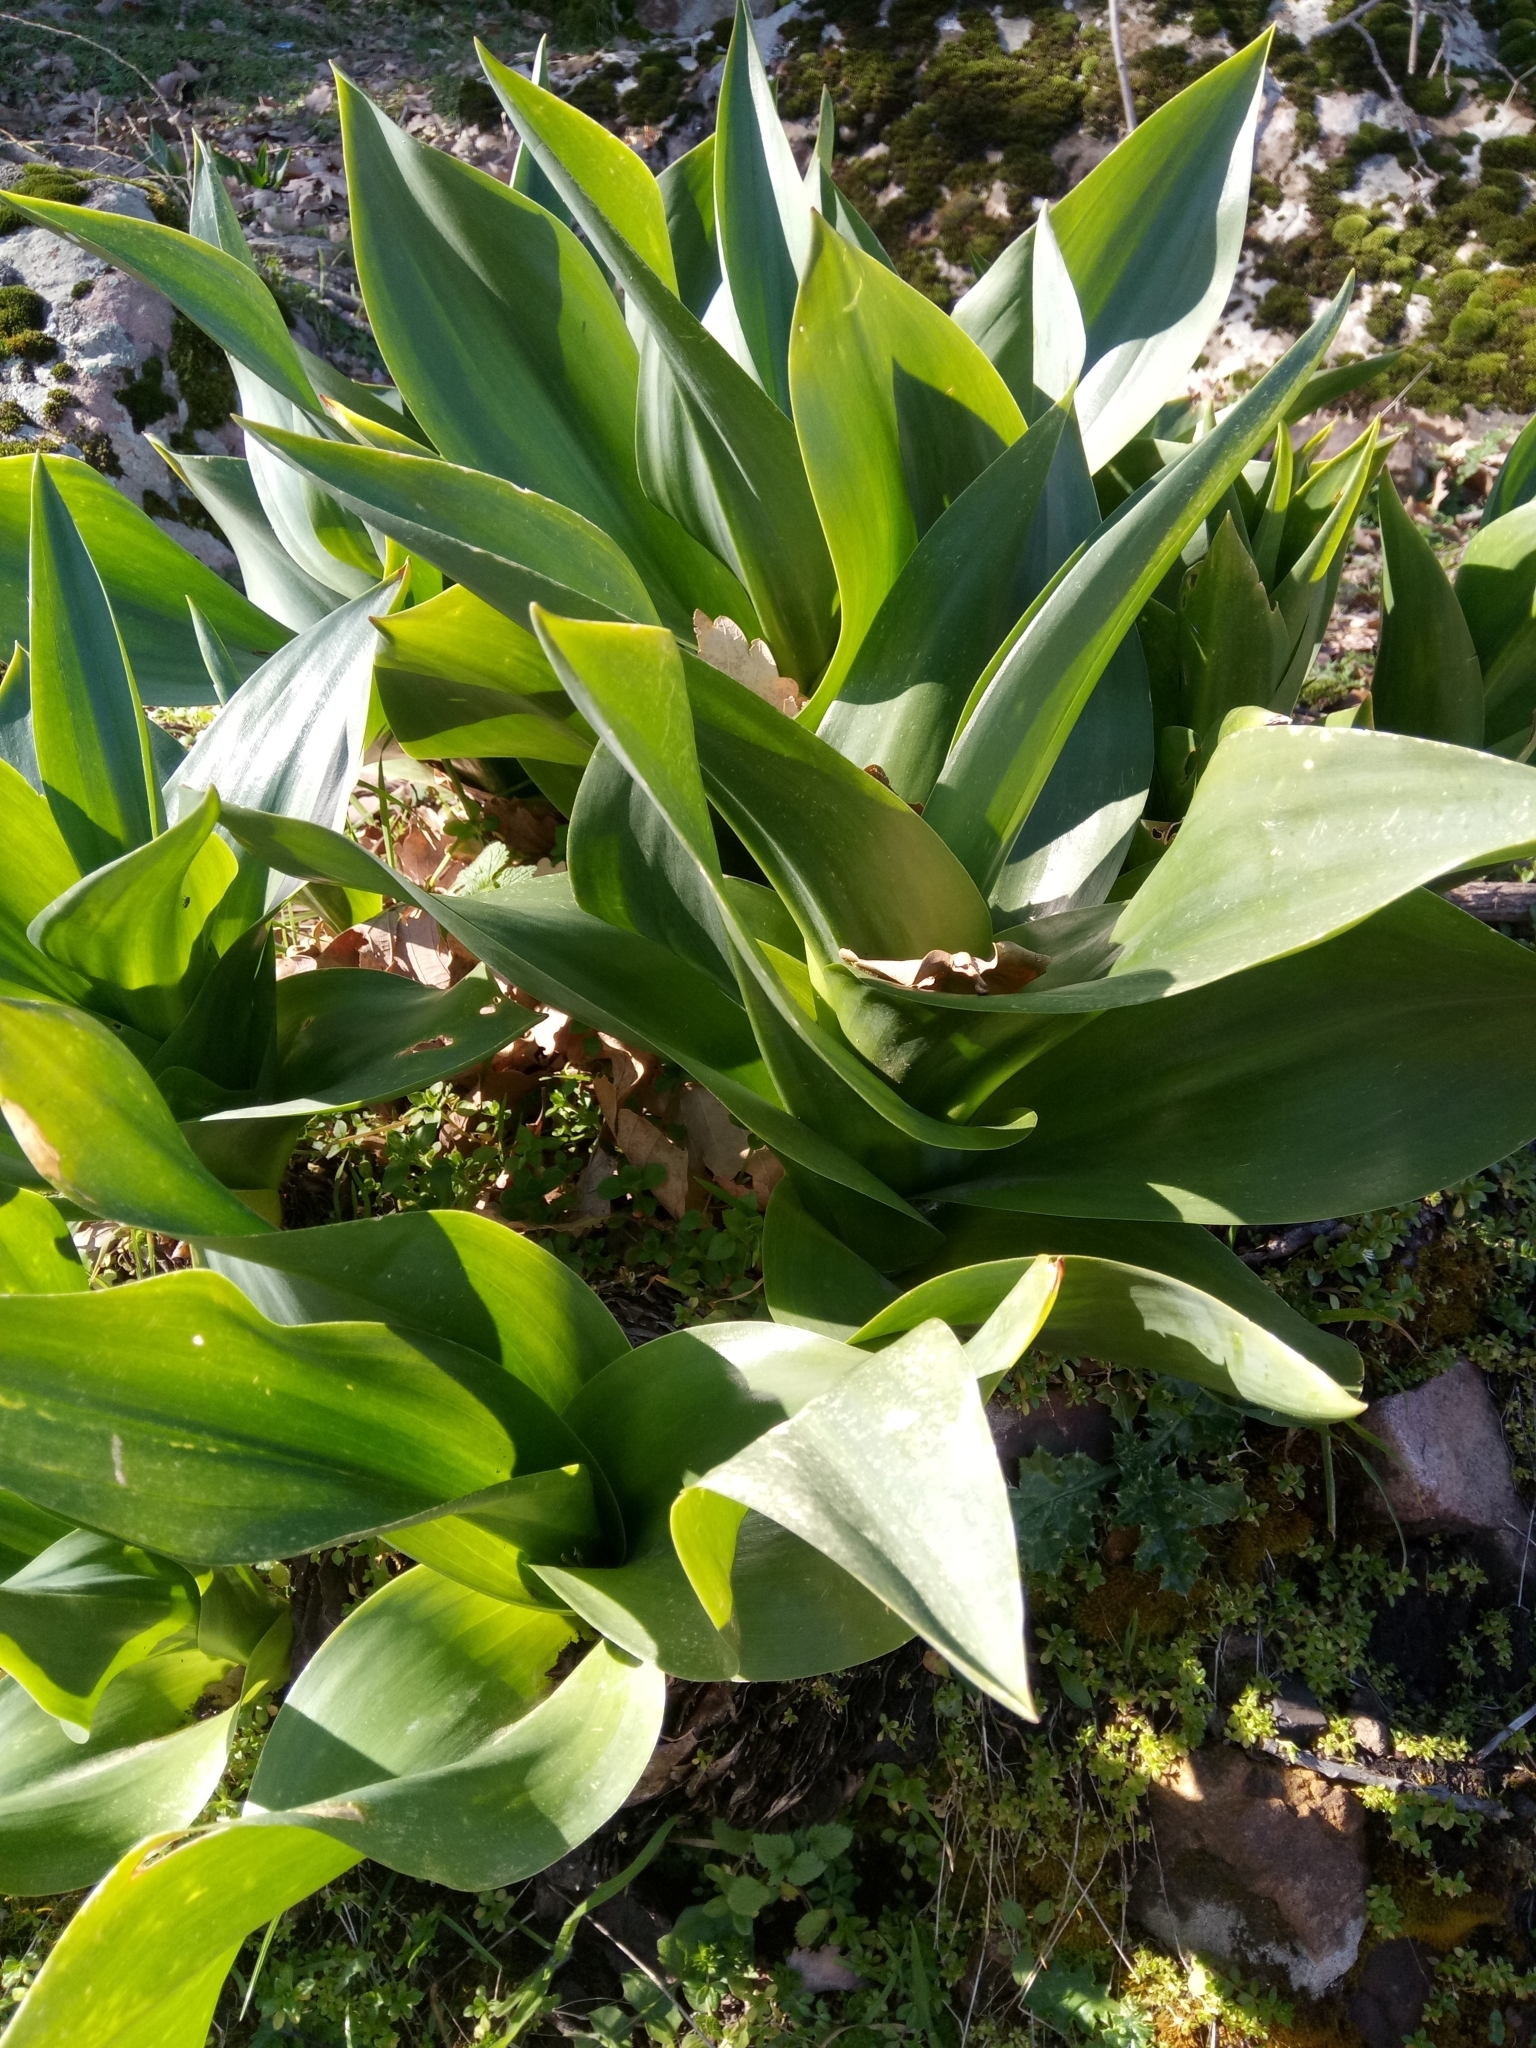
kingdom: Plantae
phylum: Tracheophyta
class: Liliopsida
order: Asparagales
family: Asparagaceae
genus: Drimia
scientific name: Drimia numidica
